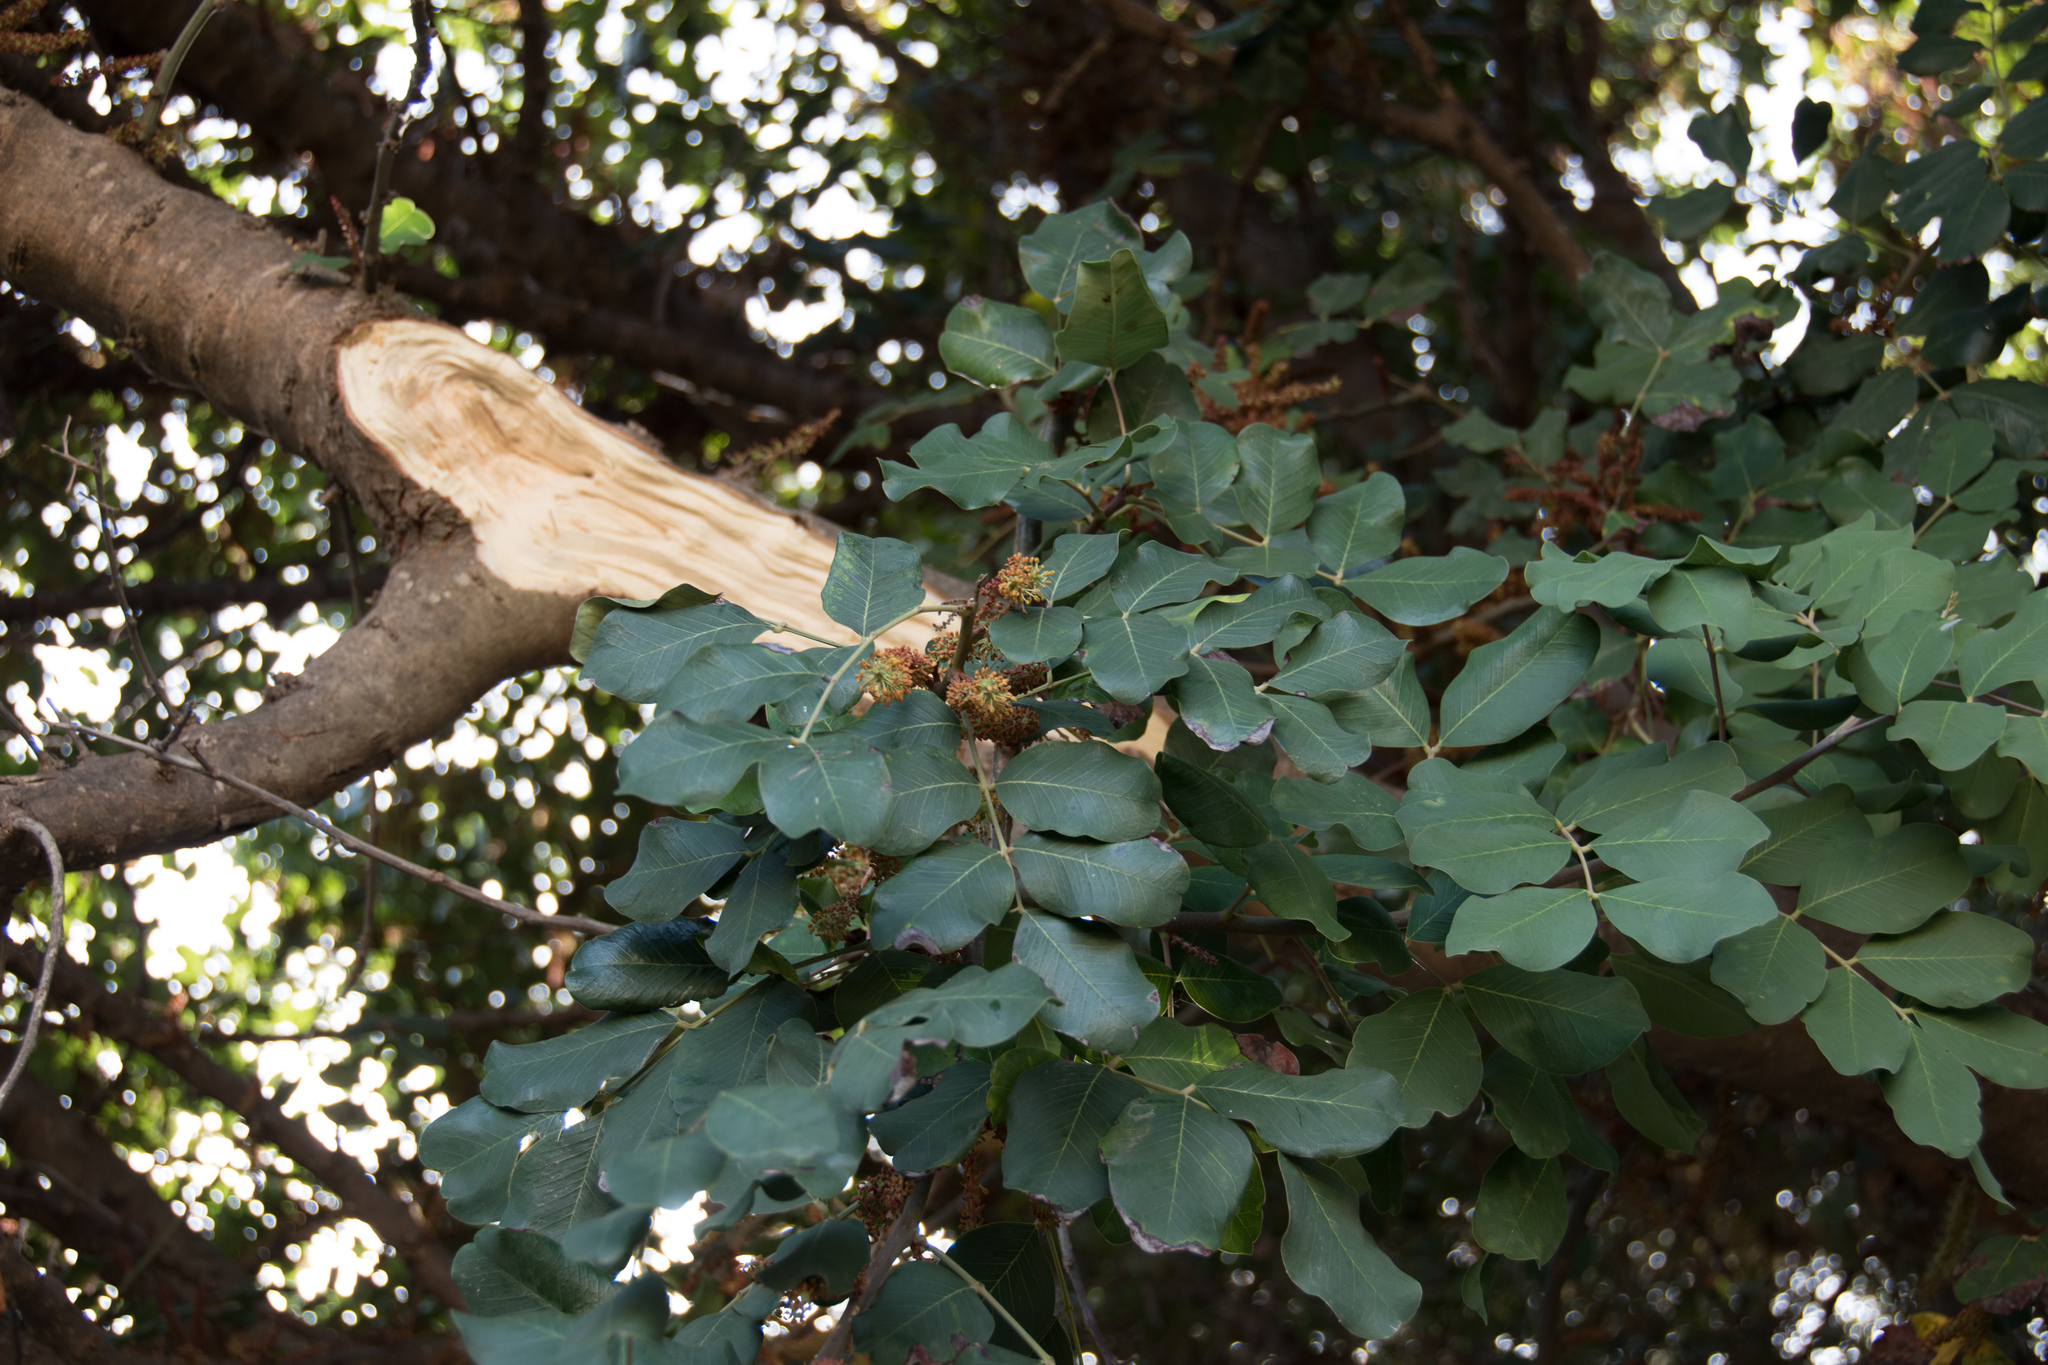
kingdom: Plantae
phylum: Tracheophyta
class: Magnoliopsida
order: Fabales
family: Fabaceae
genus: Ceratonia
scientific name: Ceratonia siliqua
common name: Carob
